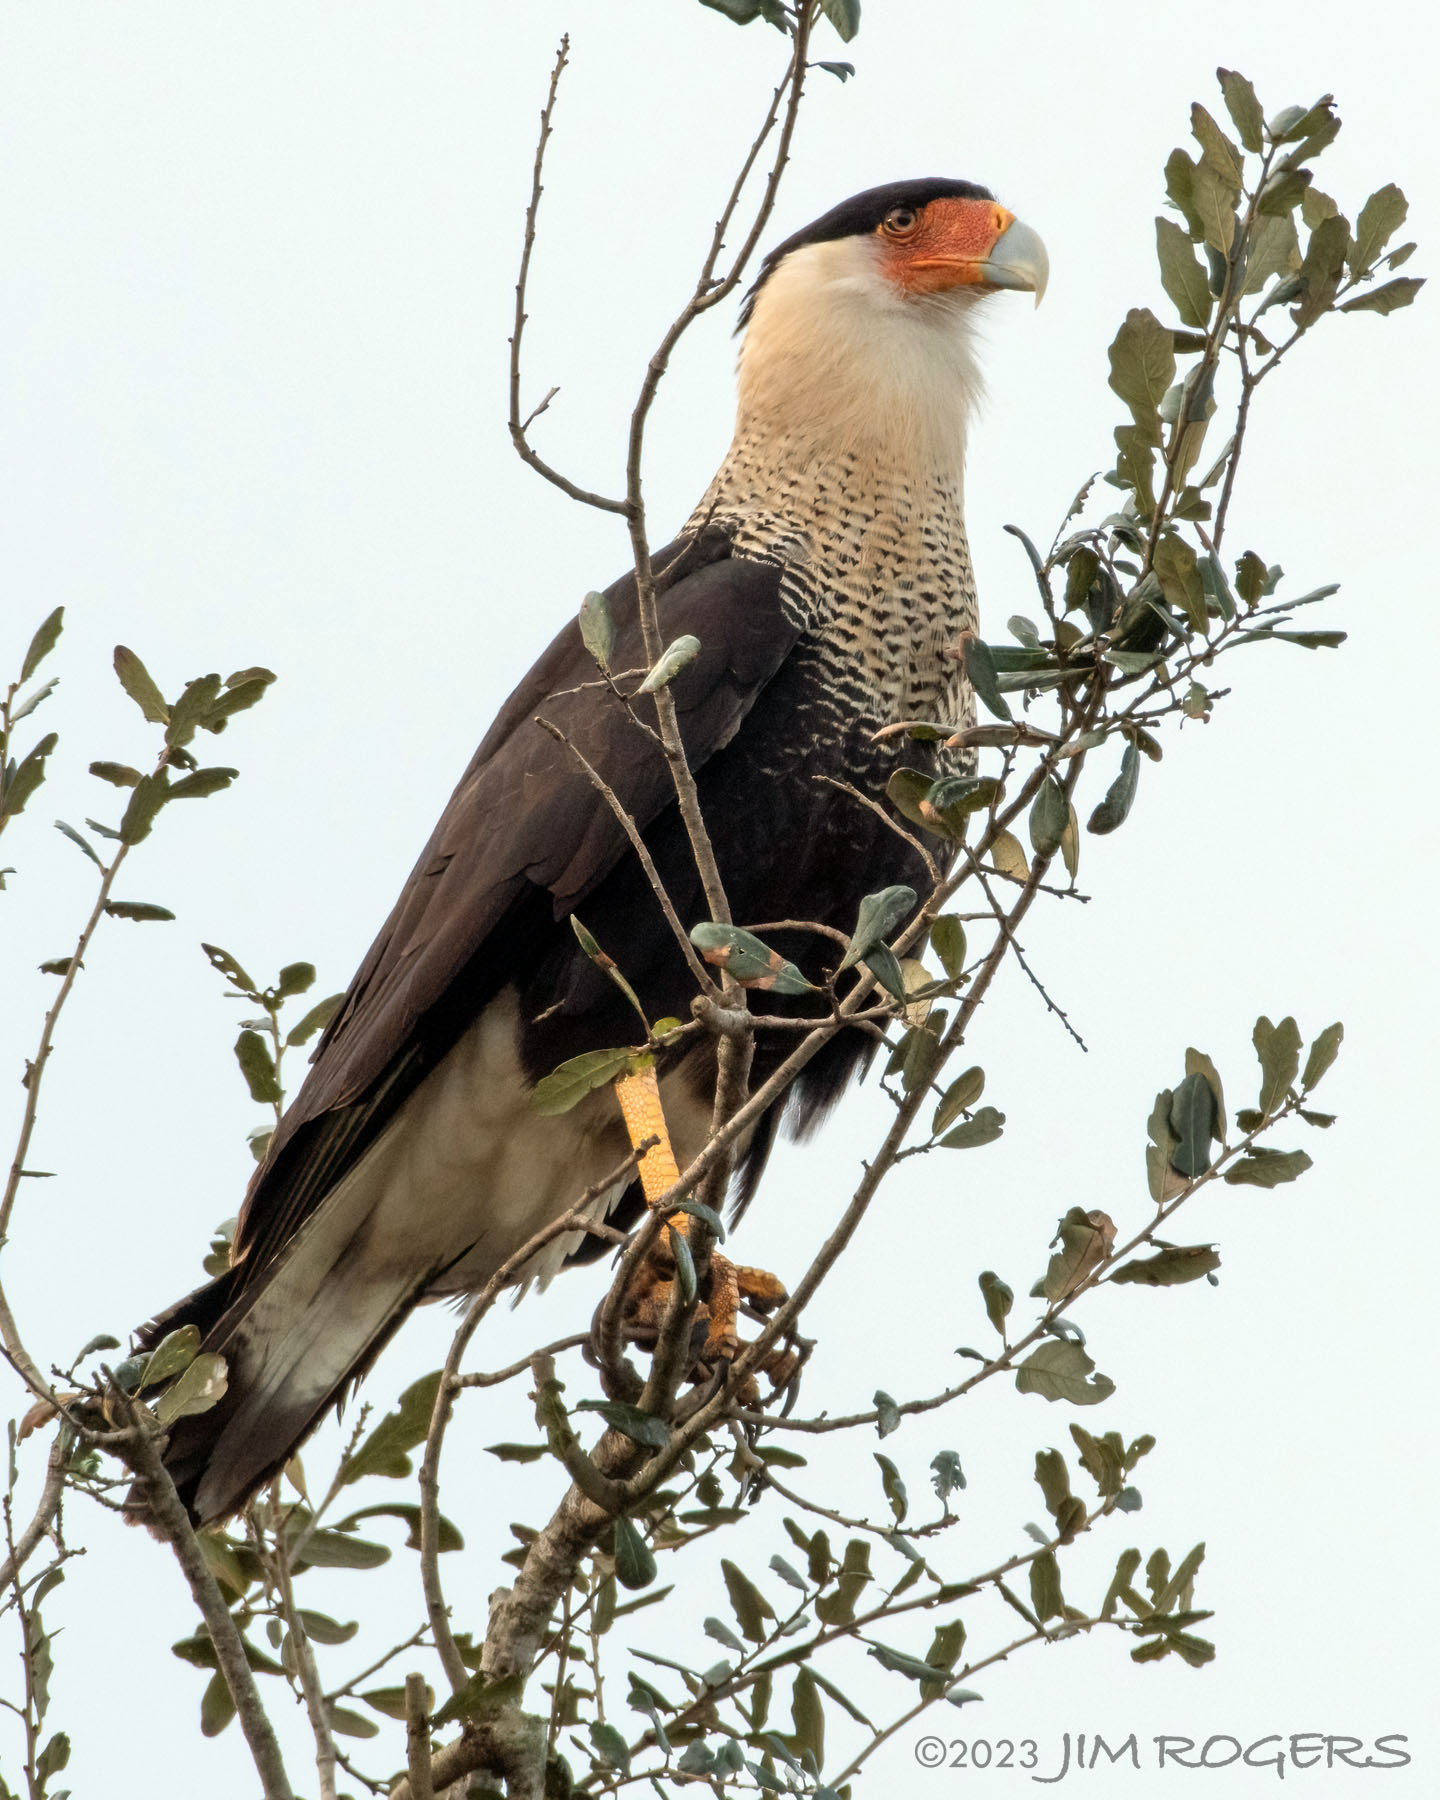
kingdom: Animalia
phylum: Chordata
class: Aves
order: Falconiformes
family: Falconidae
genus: Caracara
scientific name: Caracara plancus
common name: Southern caracara
